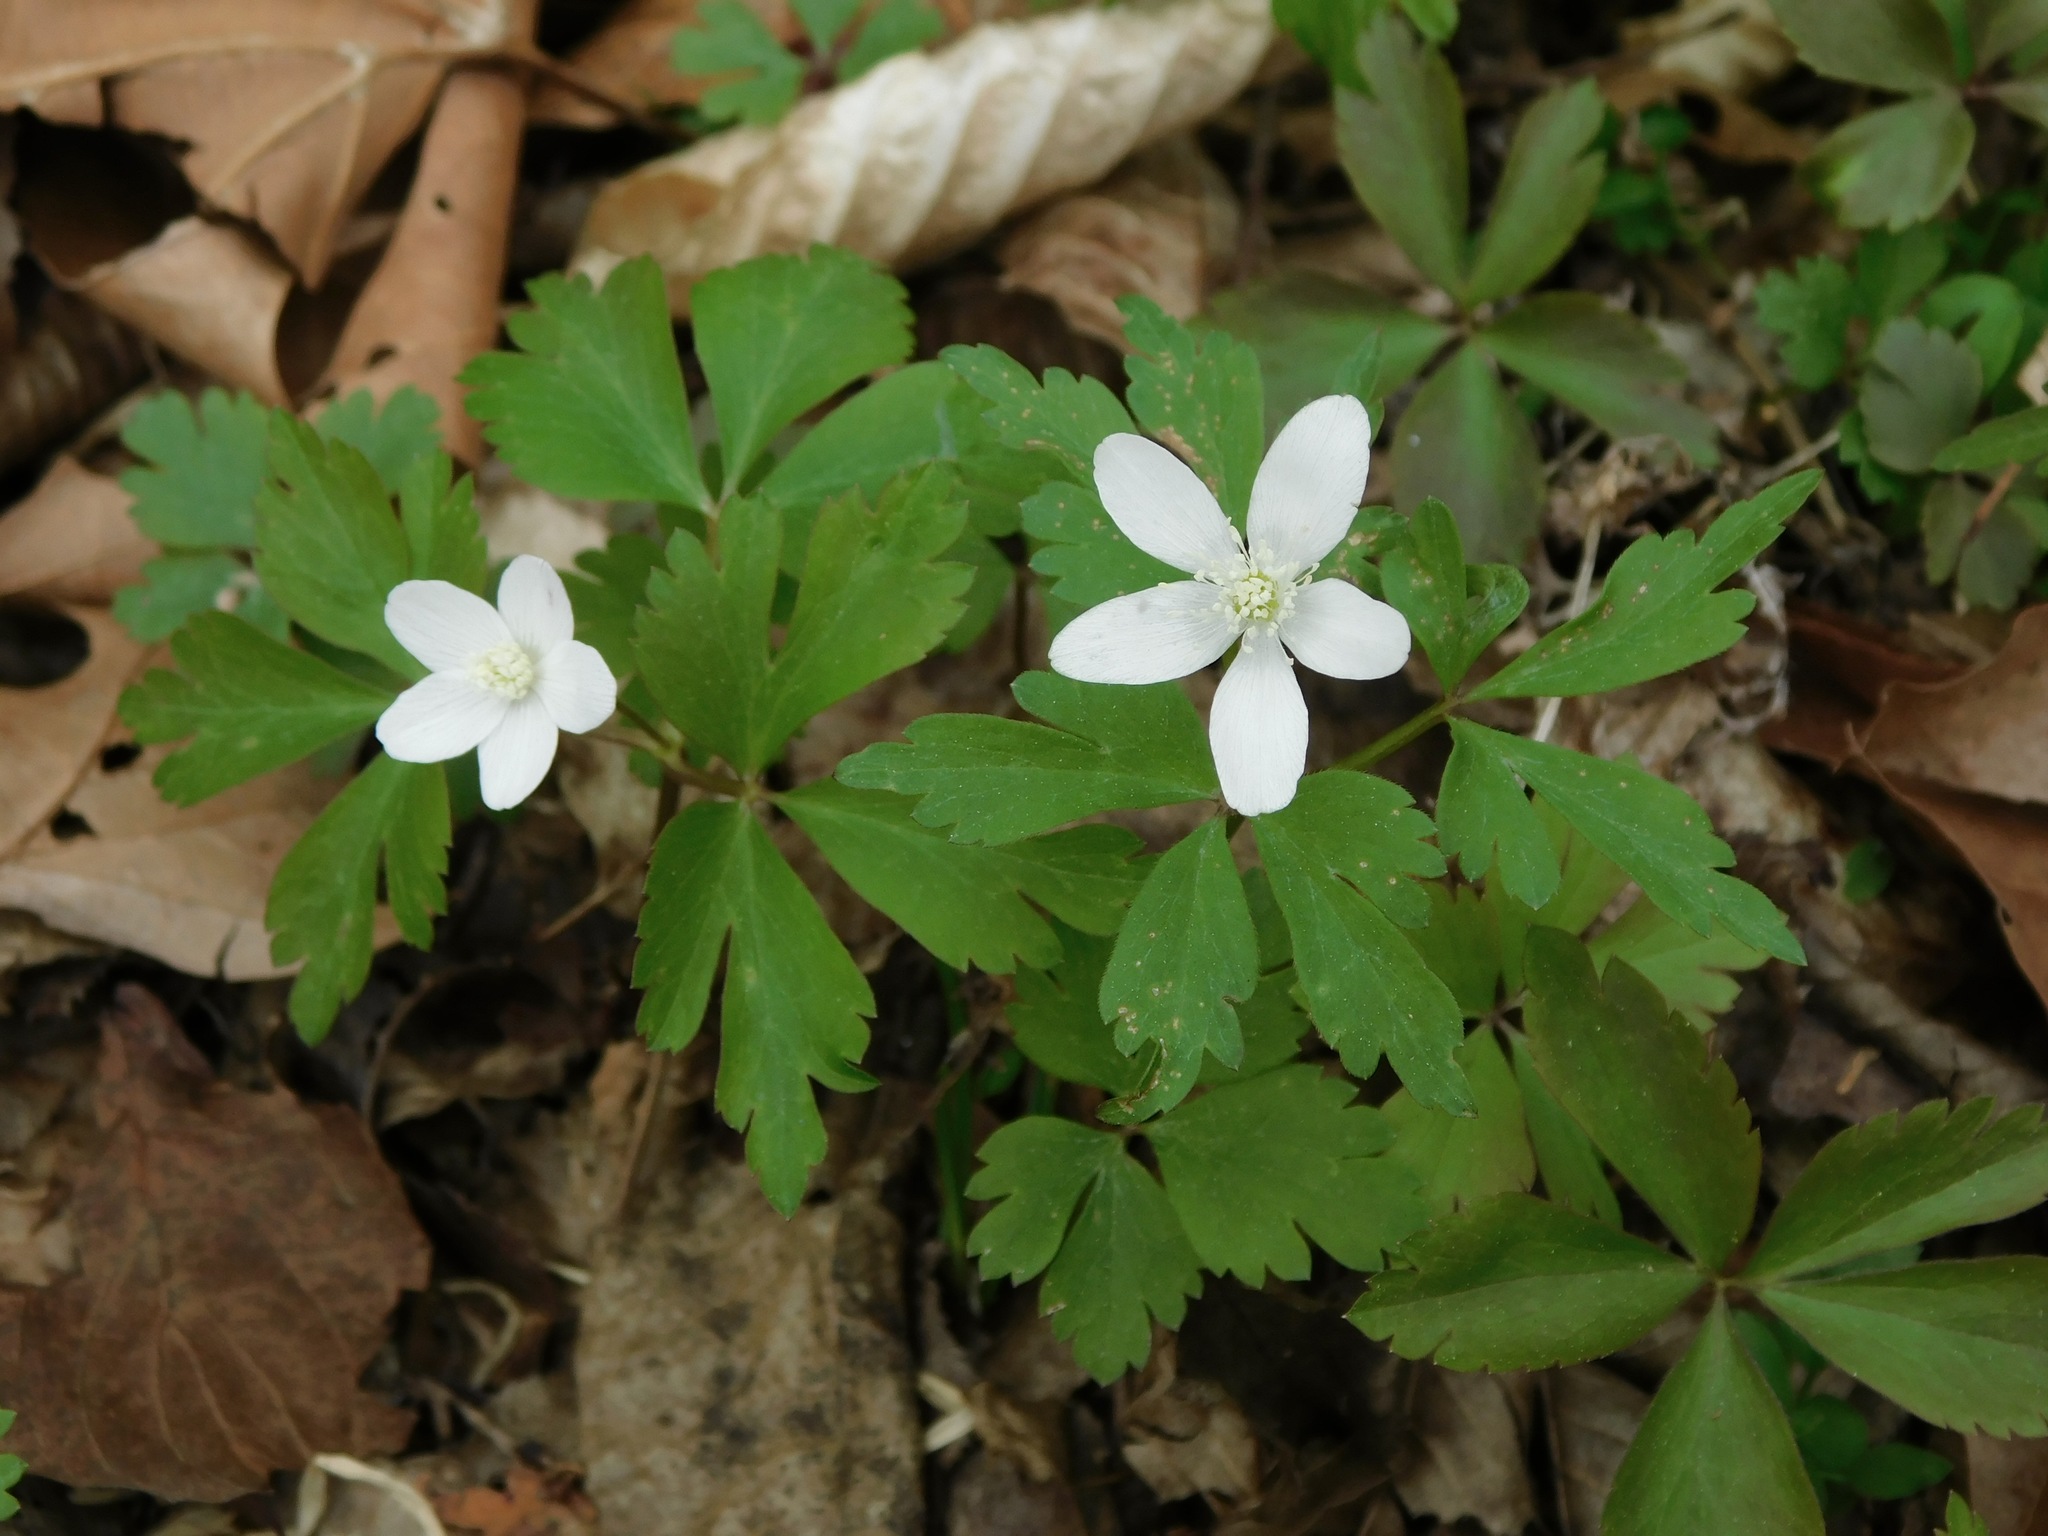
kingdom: Plantae
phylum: Tracheophyta
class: Magnoliopsida
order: Ranunculales
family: Ranunculaceae
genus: Anemone
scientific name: Anemone quinquefolia
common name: Wood anemone
